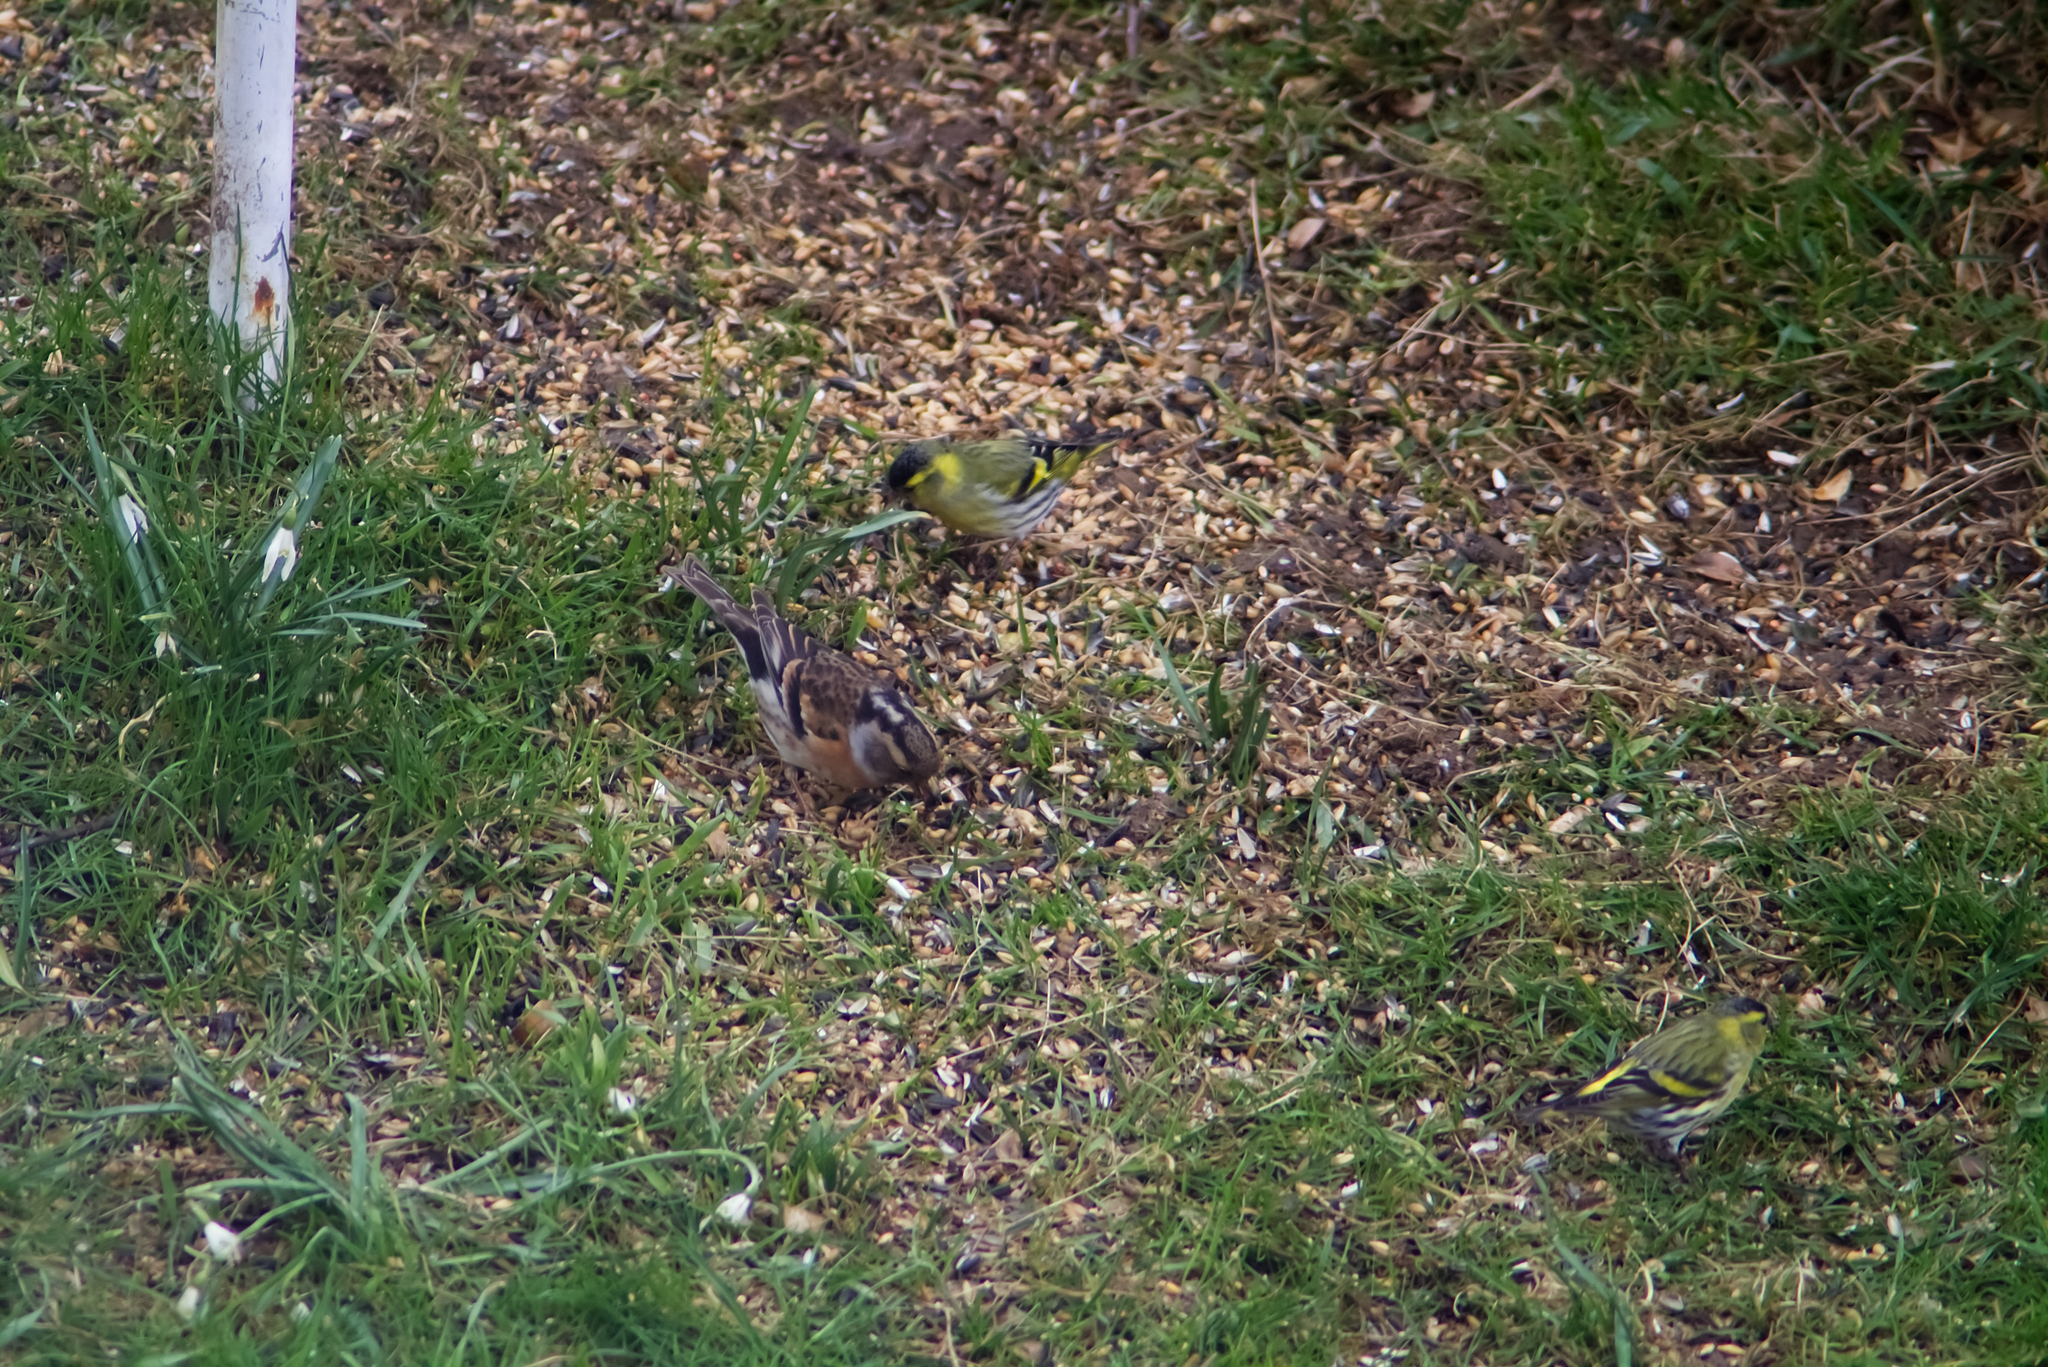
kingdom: Animalia
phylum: Chordata
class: Aves
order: Passeriformes
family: Fringillidae
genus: Fringilla
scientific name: Fringilla montifringilla
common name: Brambling
